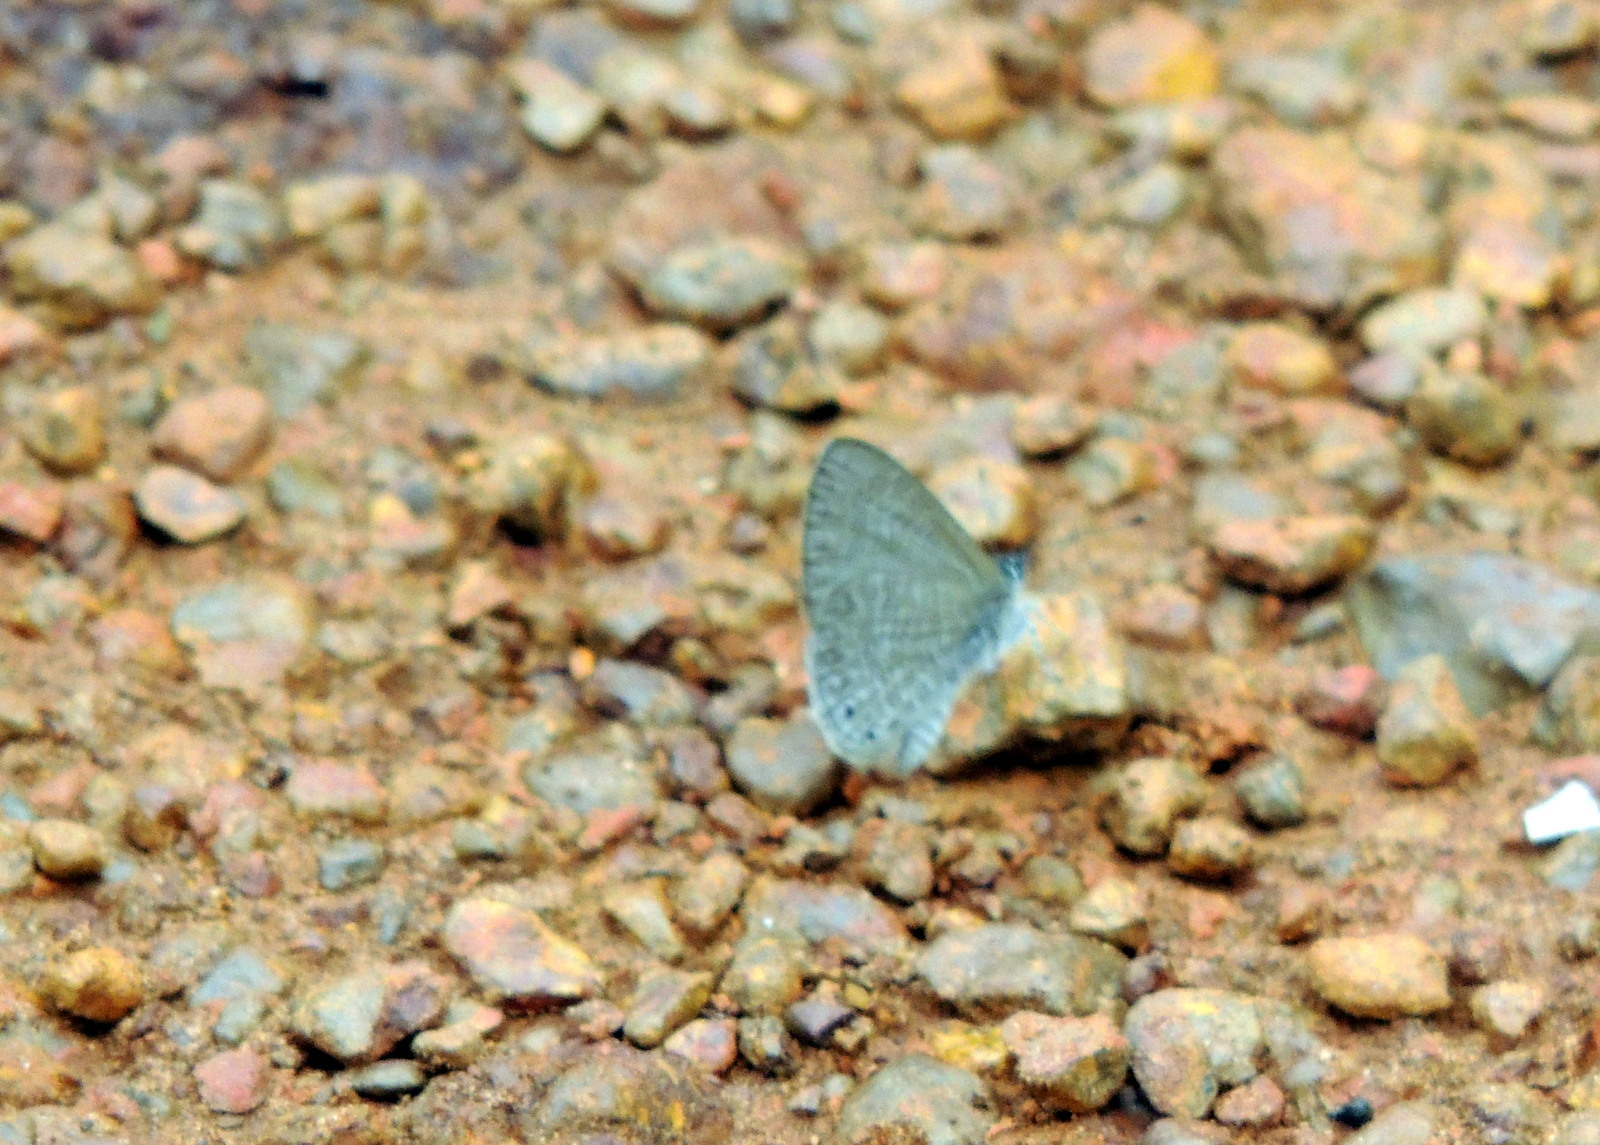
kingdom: Animalia
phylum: Arthropoda
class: Insecta
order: Lepidoptera
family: Lycaenidae
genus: Pseudonacaduba
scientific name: Pseudonacaduba sichela
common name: African line blue
